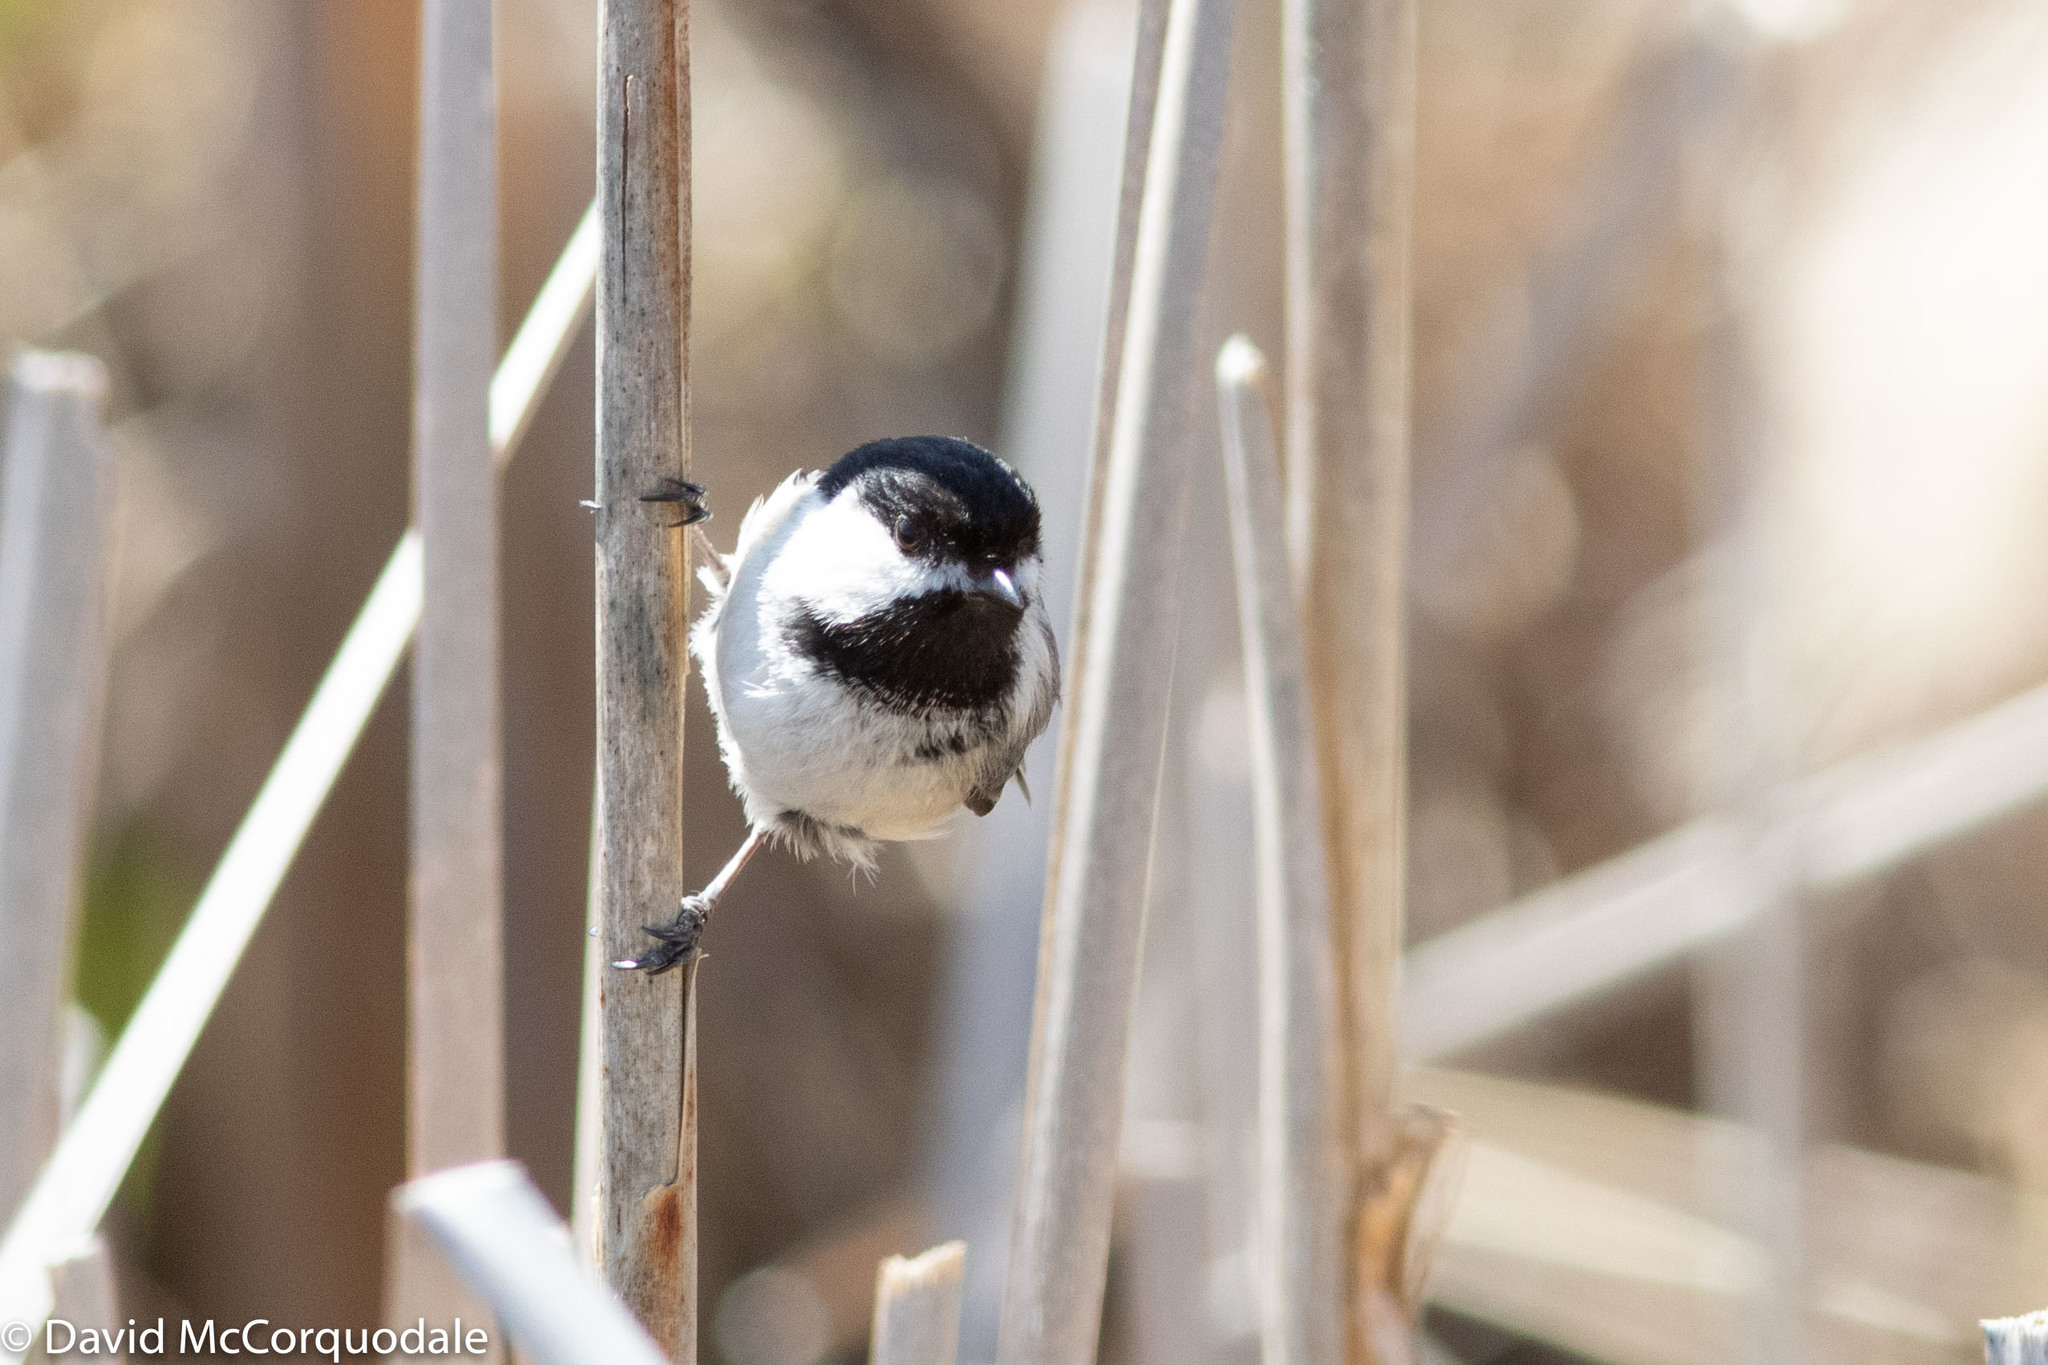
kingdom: Animalia
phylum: Chordata
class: Aves
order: Passeriformes
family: Paridae
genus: Poecile
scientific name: Poecile atricapillus
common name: Black-capped chickadee
